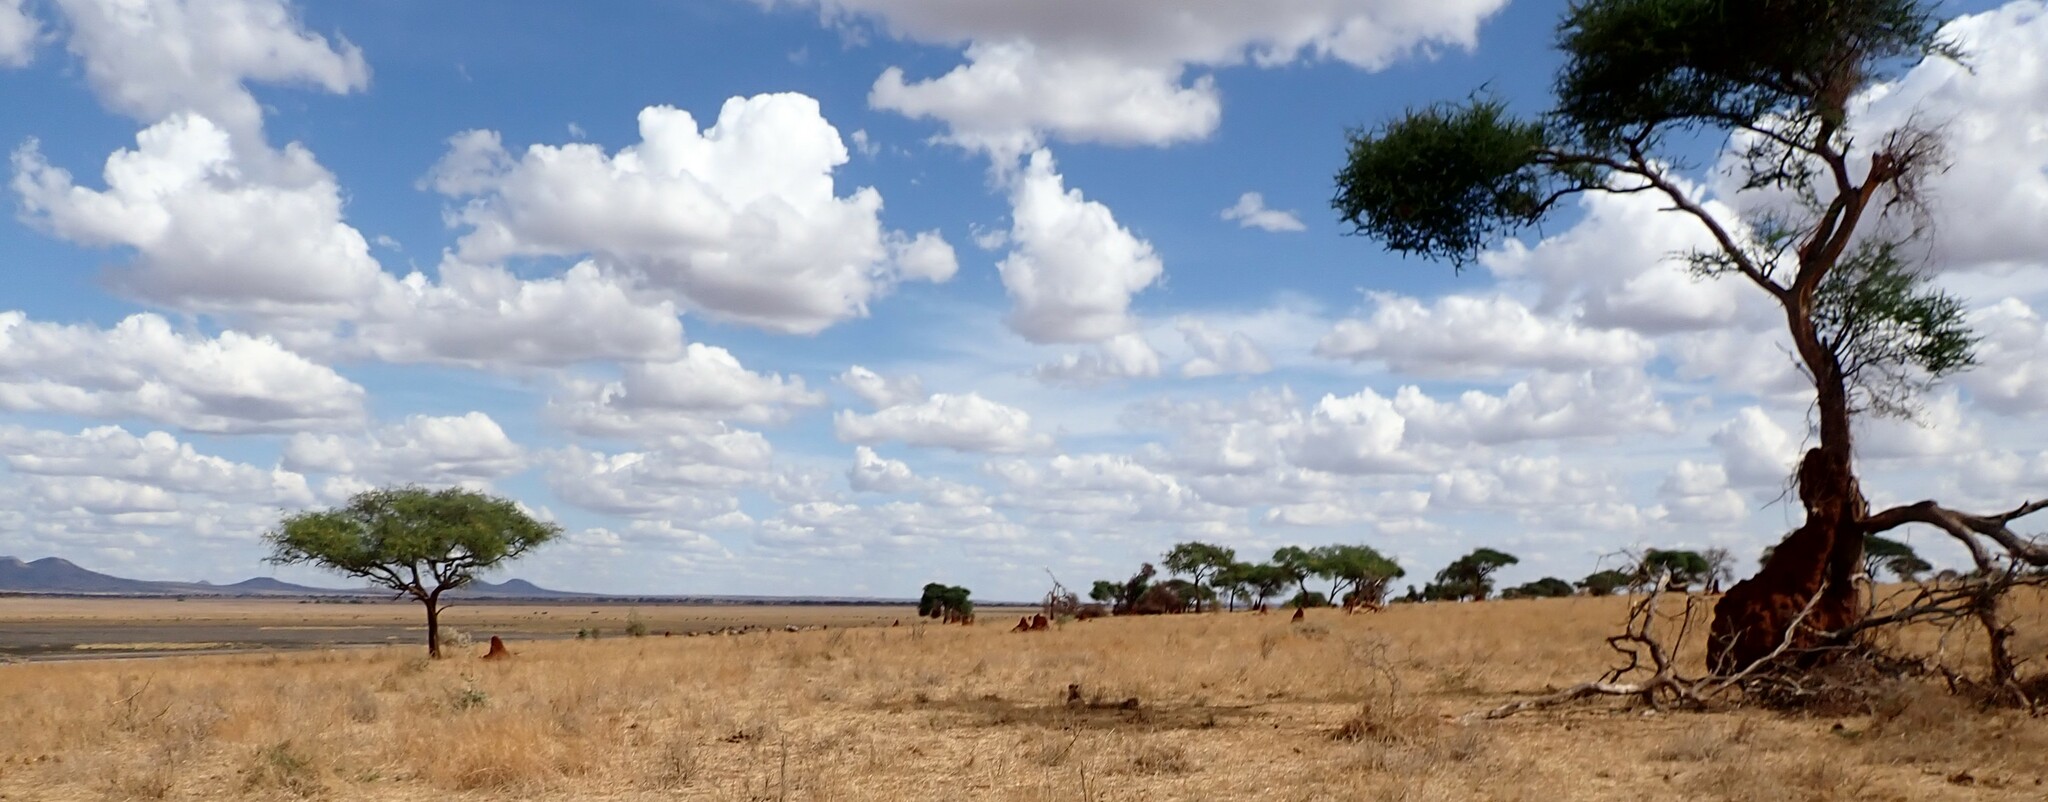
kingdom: Animalia
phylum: Chordata
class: Mammalia
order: Carnivora
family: Felidae
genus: Acinonyx
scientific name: Acinonyx jubatus
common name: Cheetah
